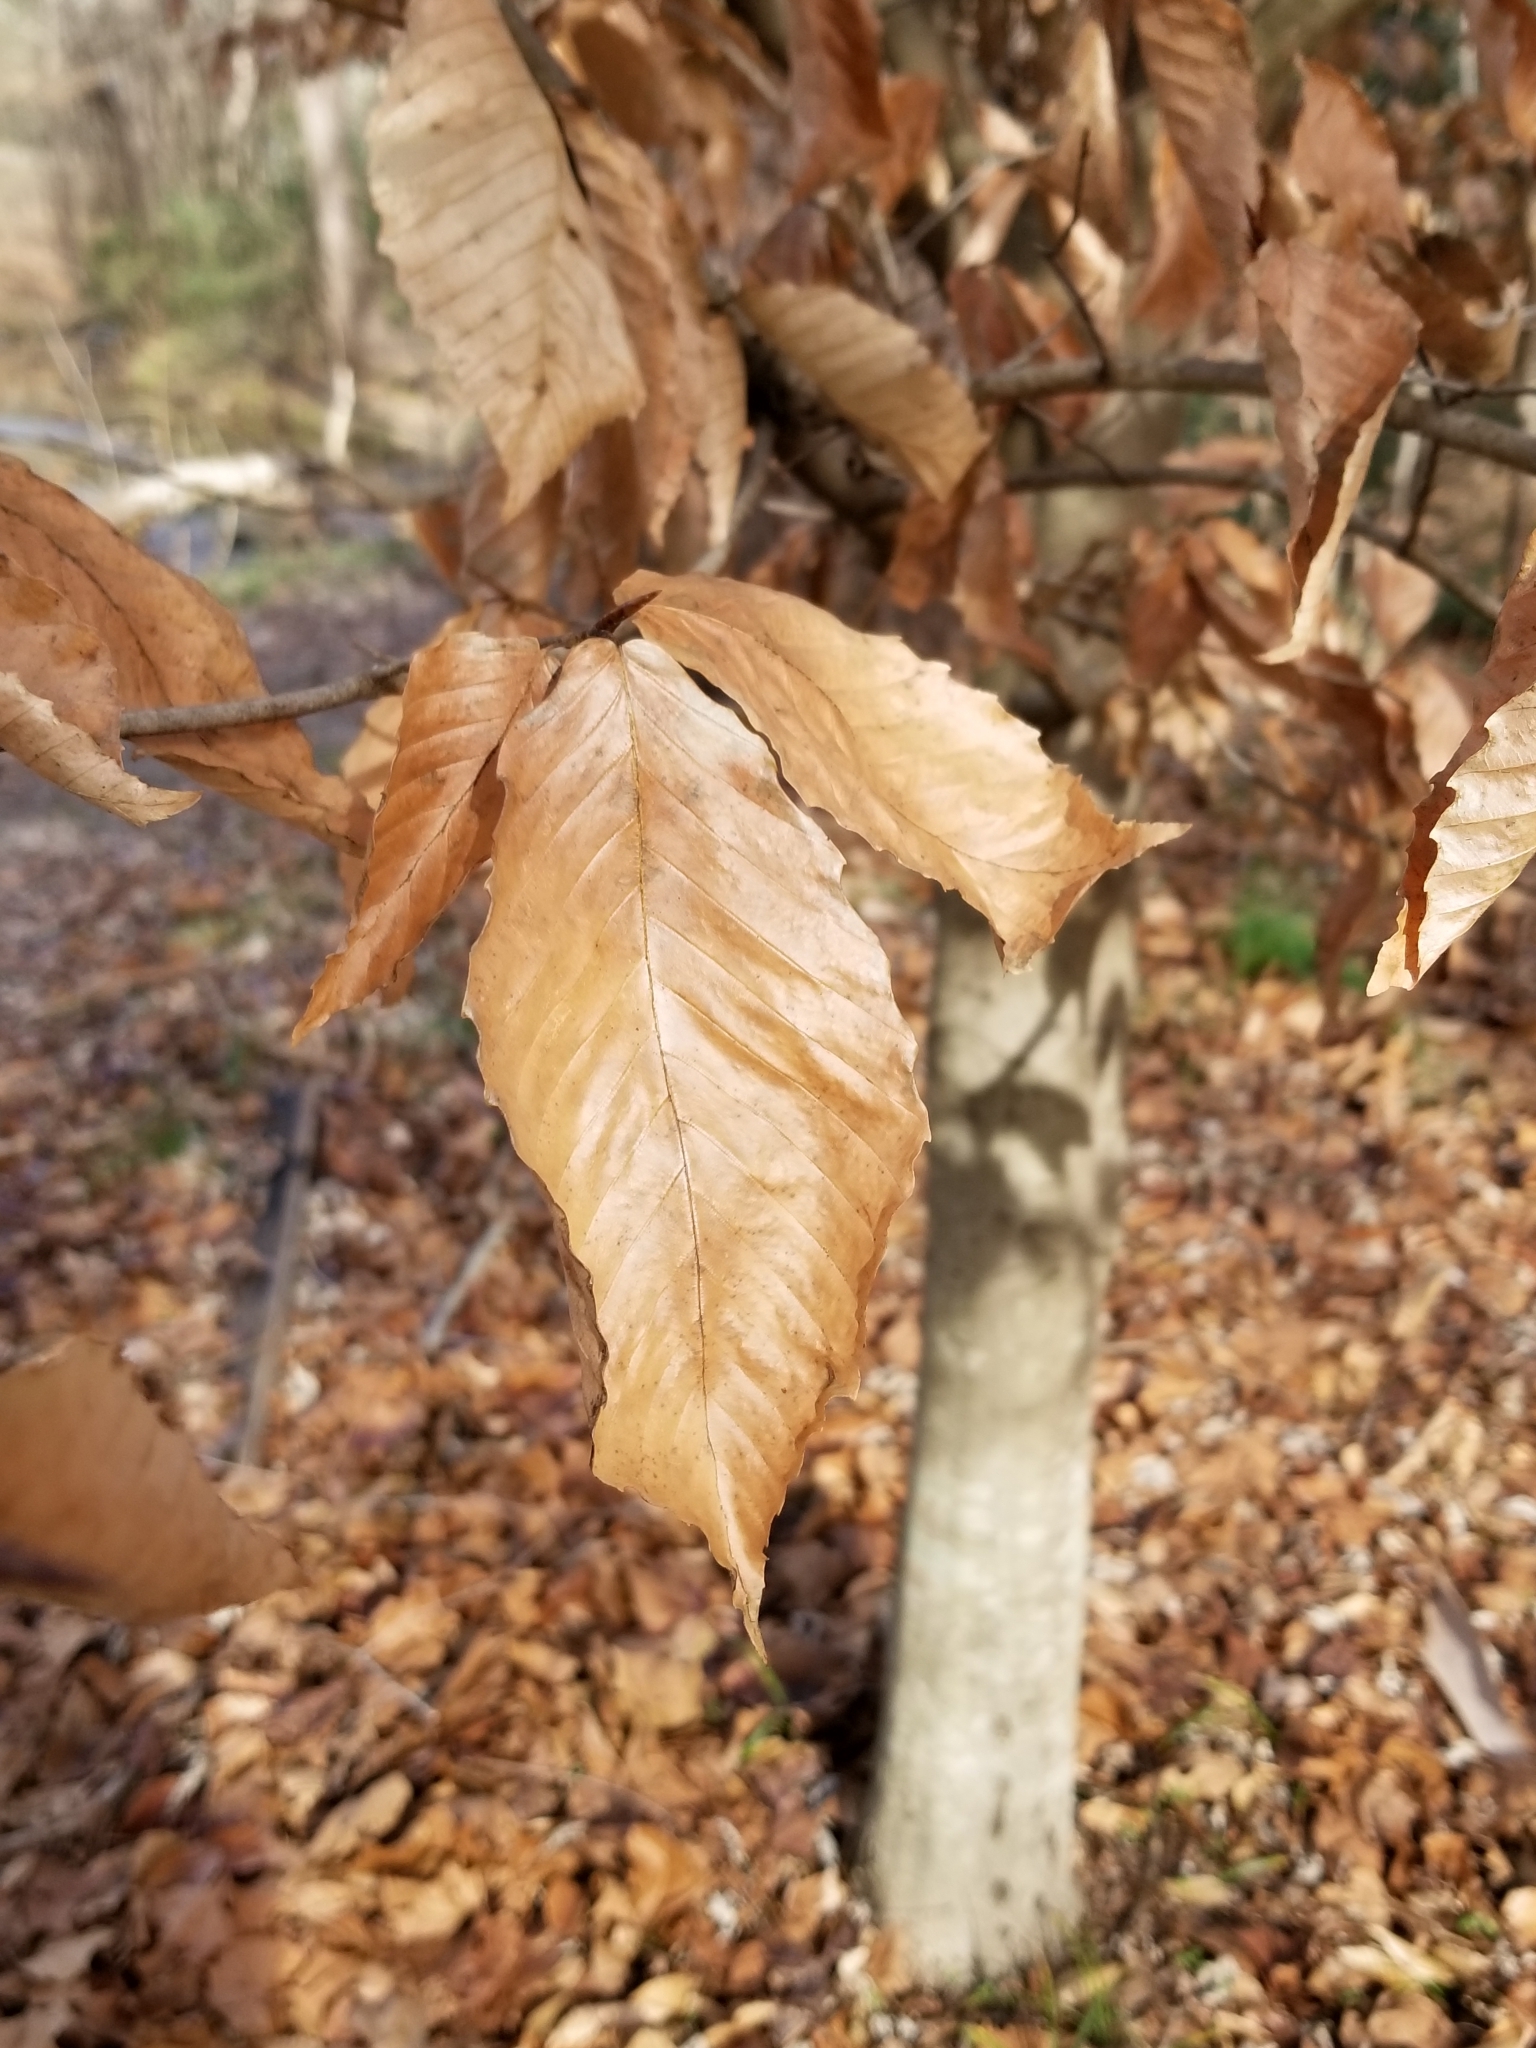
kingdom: Plantae
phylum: Tracheophyta
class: Magnoliopsida
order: Fagales
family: Fagaceae
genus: Fagus
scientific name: Fagus grandifolia
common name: American beech
